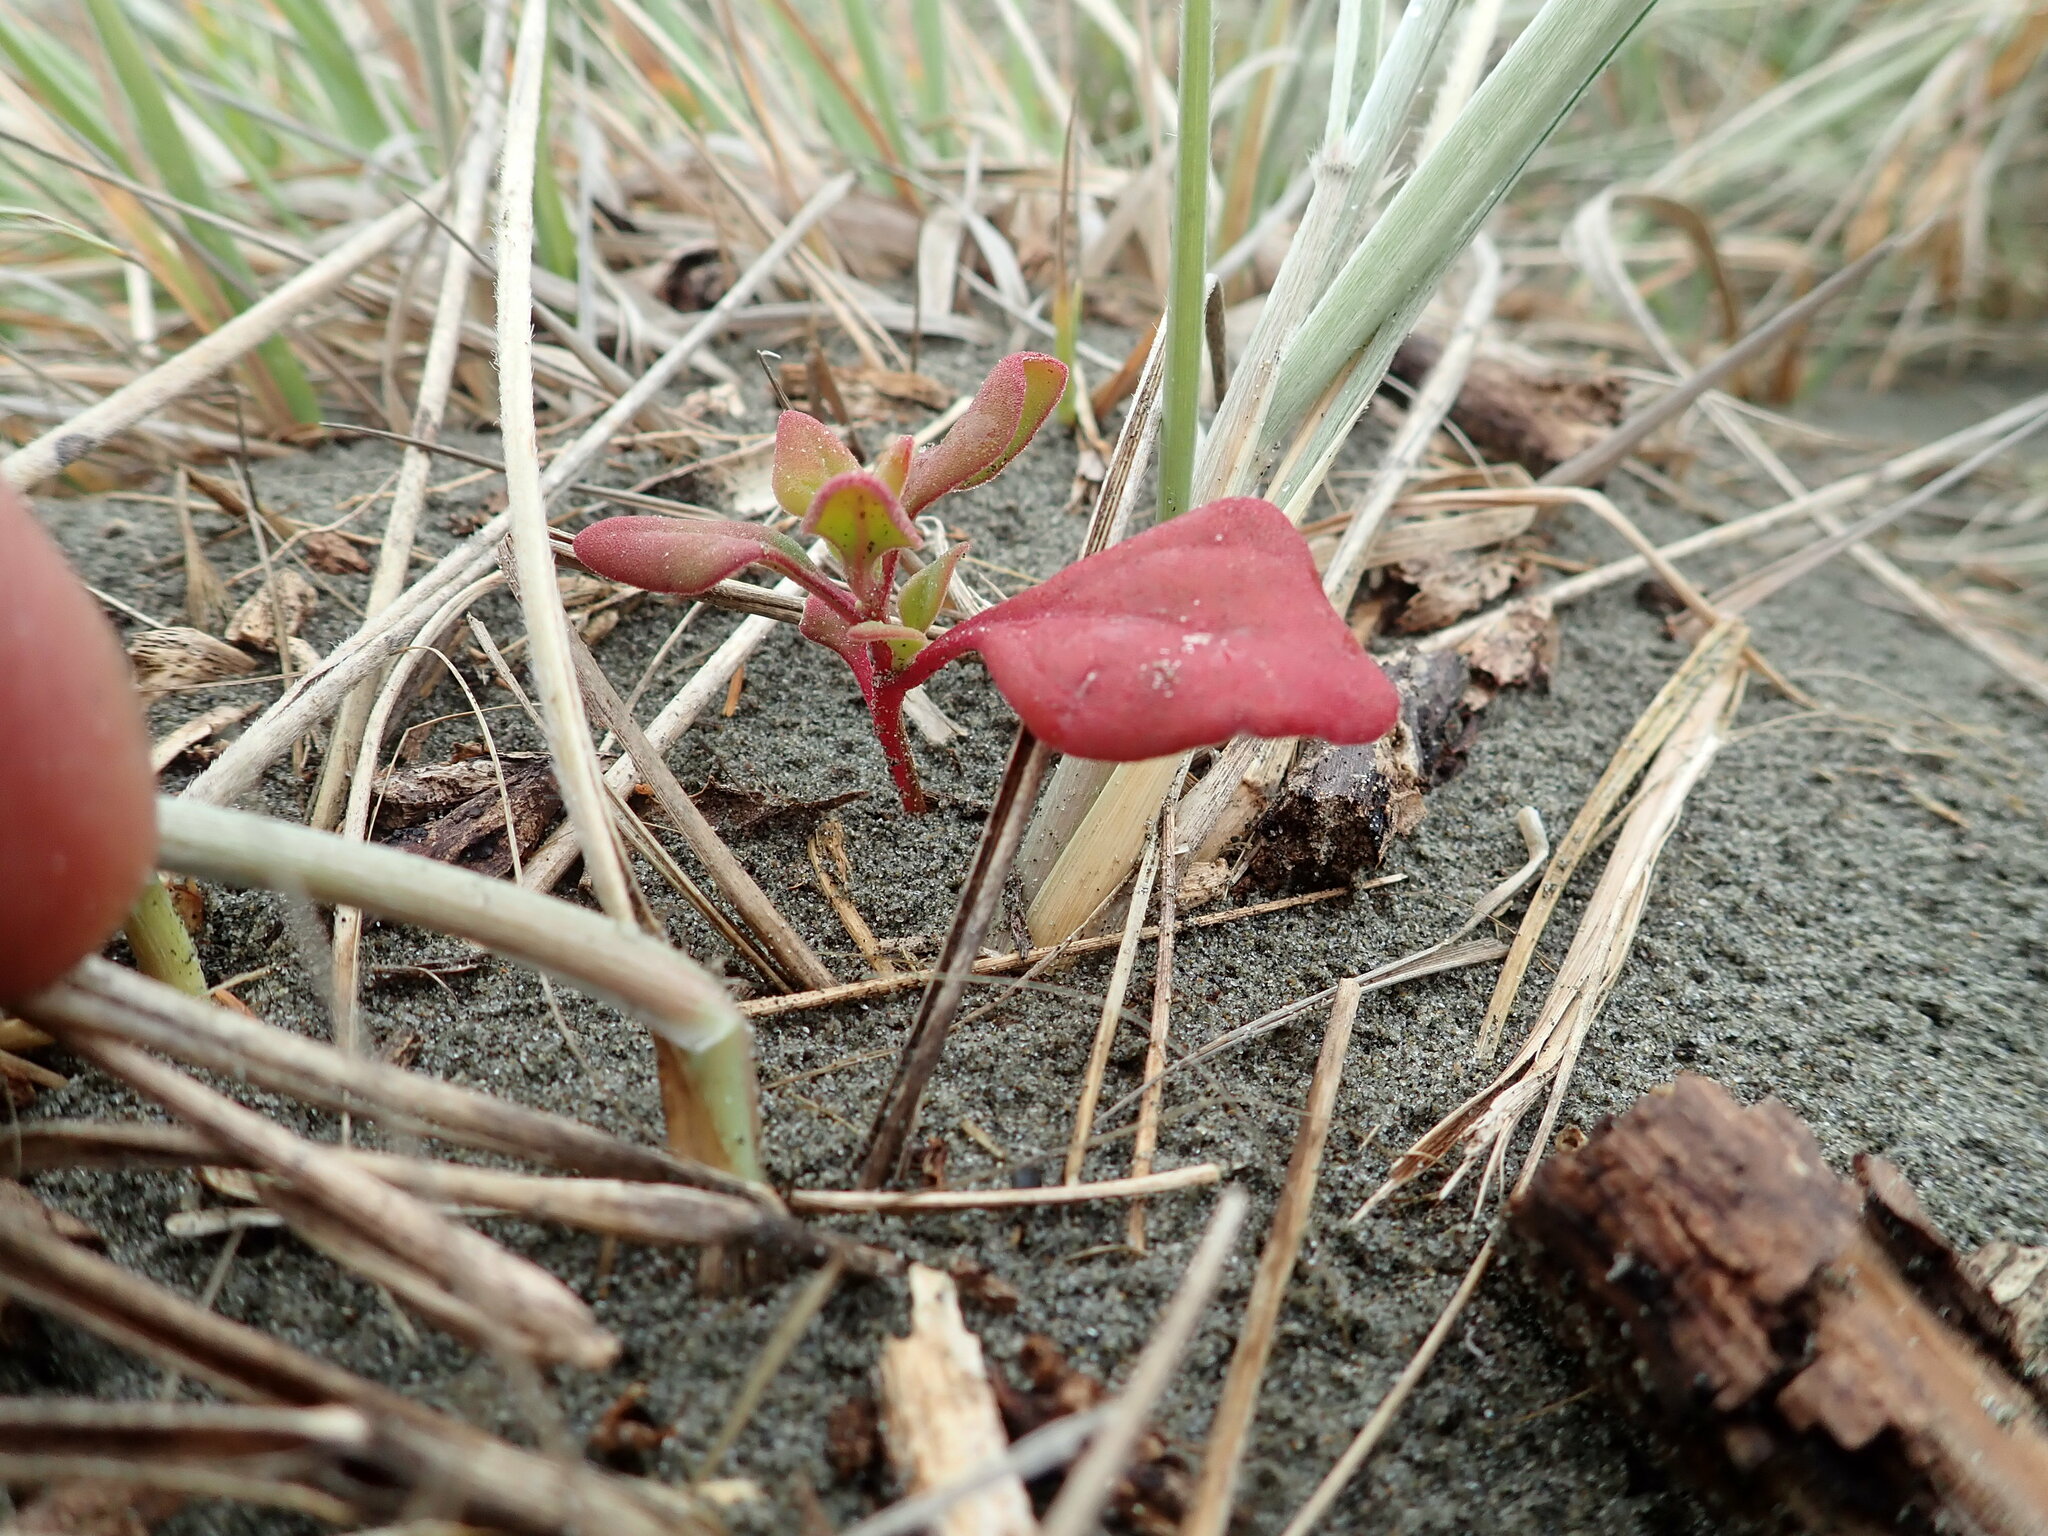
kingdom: Plantae
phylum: Tracheophyta
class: Magnoliopsida
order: Caryophyllales
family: Aizoaceae
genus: Tetragonia
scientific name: Tetragonia implexicoma
